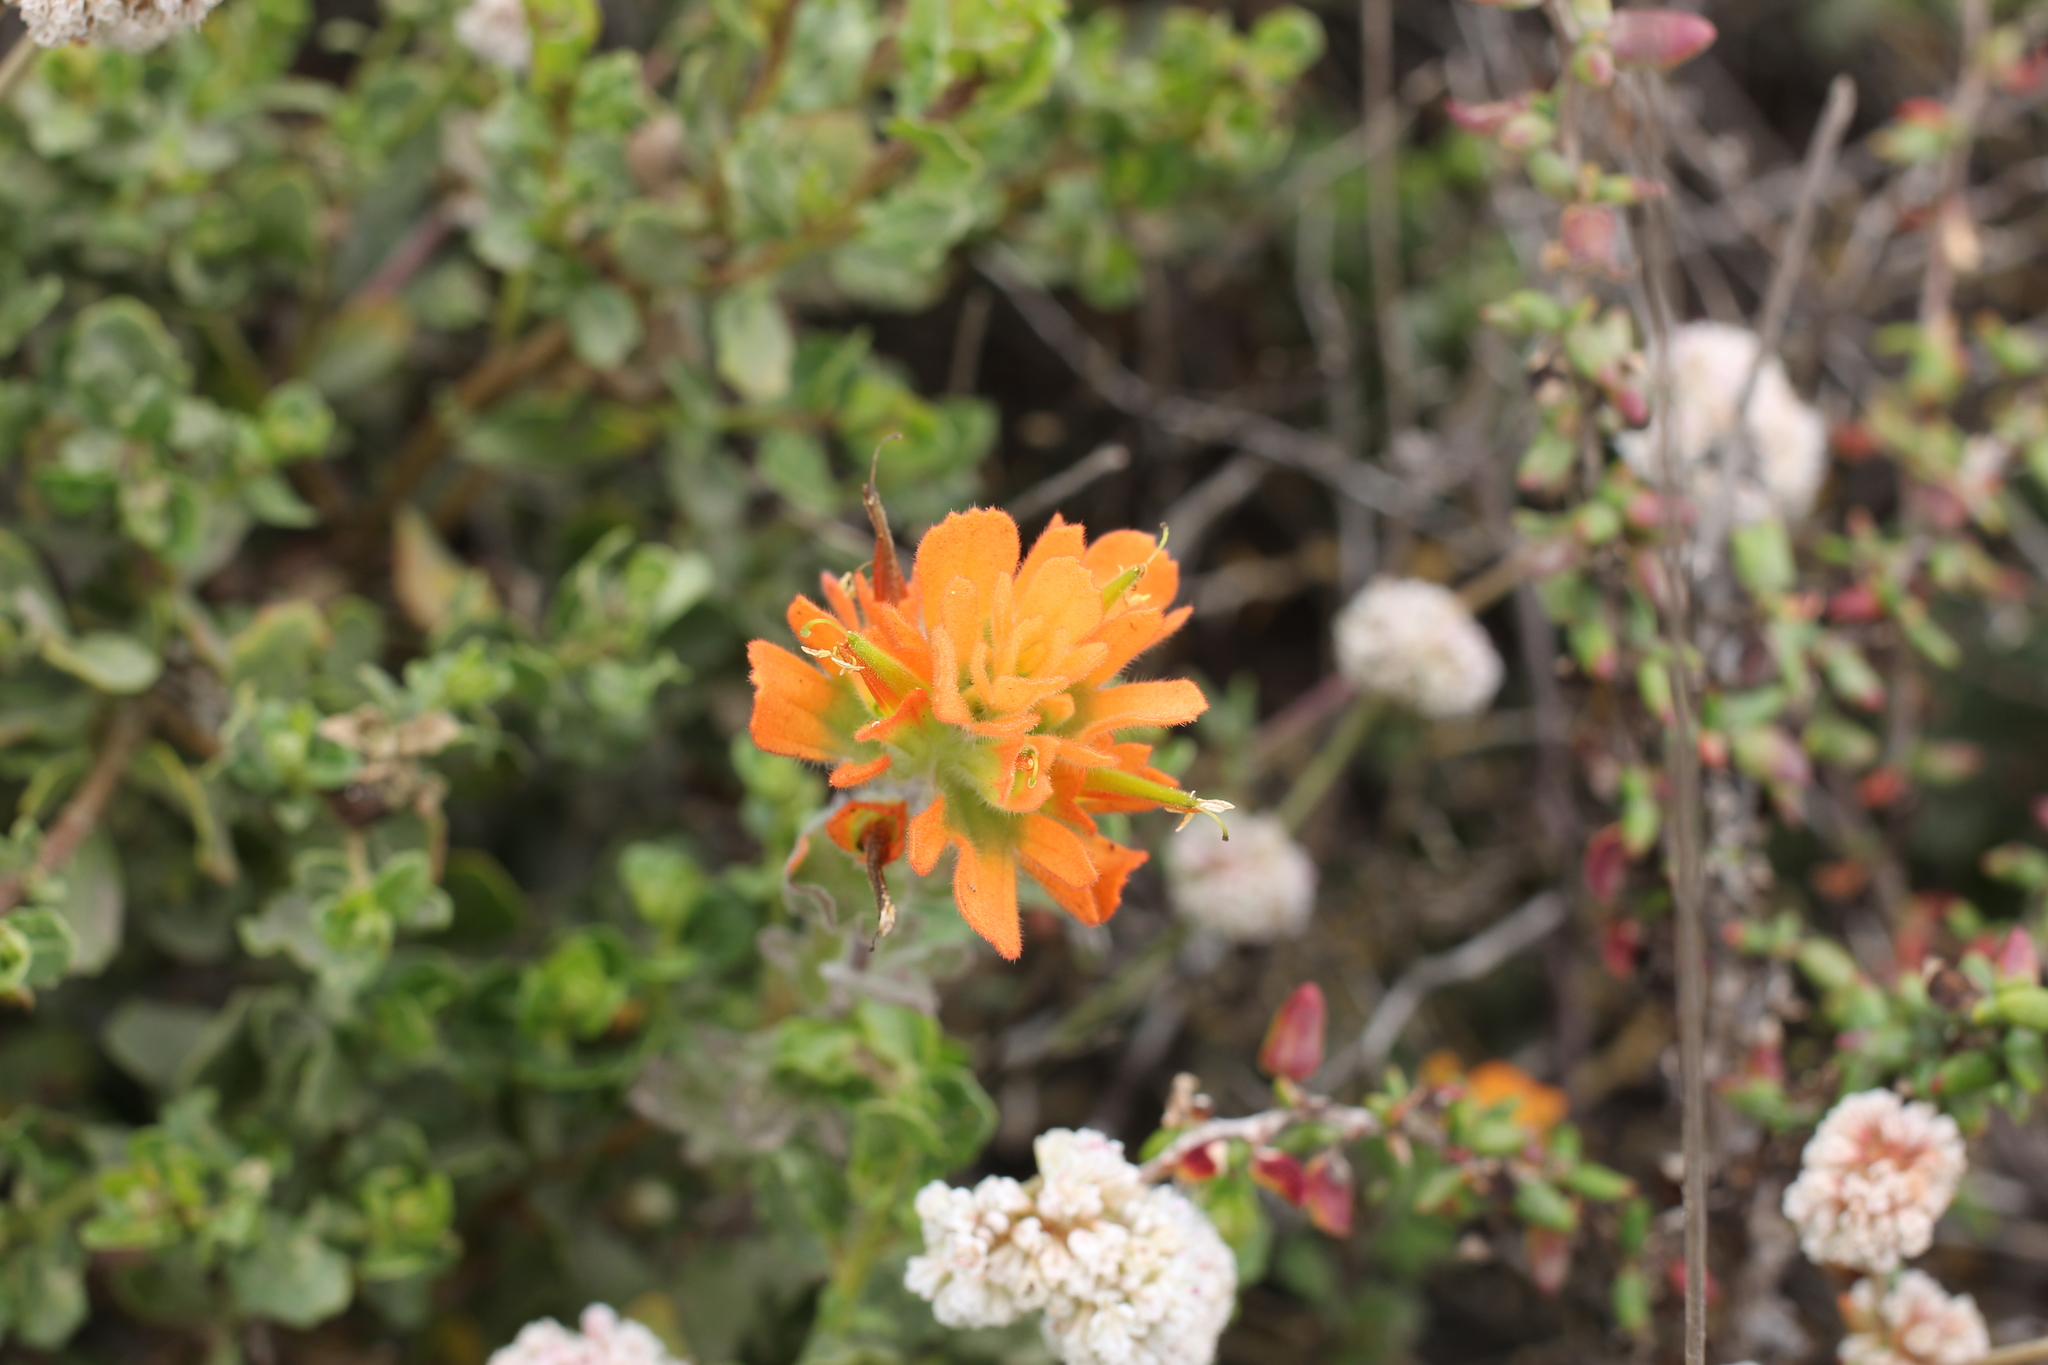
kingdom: Plantae
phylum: Tracheophyta
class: Magnoliopsida
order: Lamiales
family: Orobanchaceae
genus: Castilleja
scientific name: Castilleja latifolia
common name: Monterey indian paintbrush
